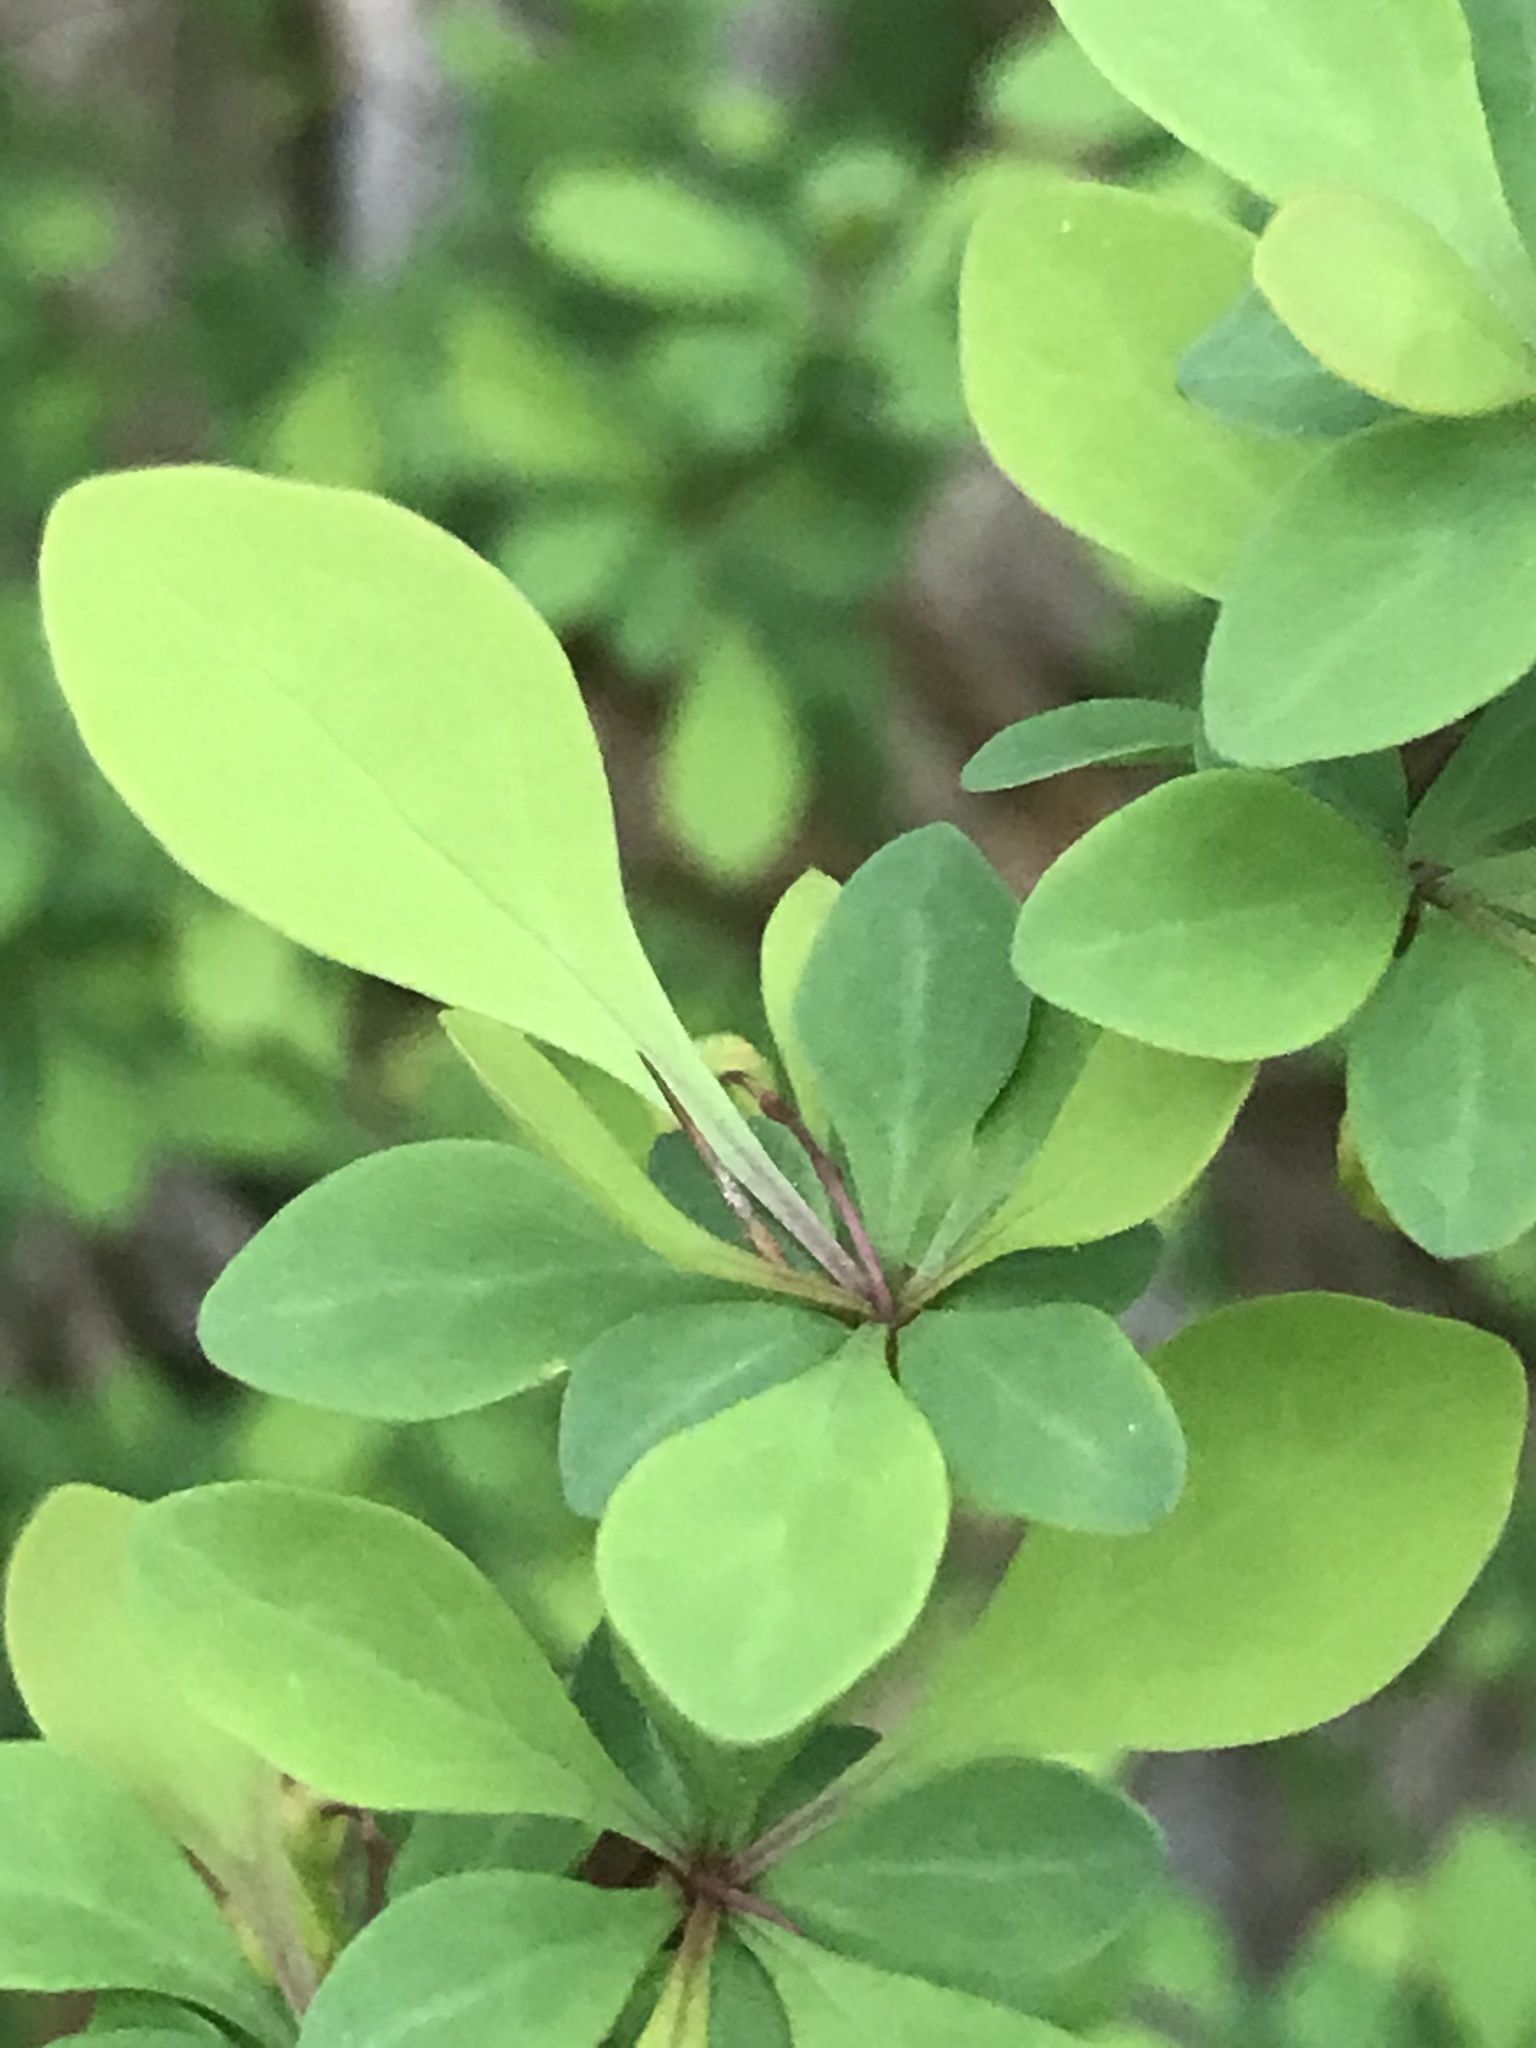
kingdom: Plantae
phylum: Tracheophyta
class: Magnoliopsida
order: Ranunculales
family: Berberidaceae
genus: Berberis
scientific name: Berberis thunbergii
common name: Japanese barberry
